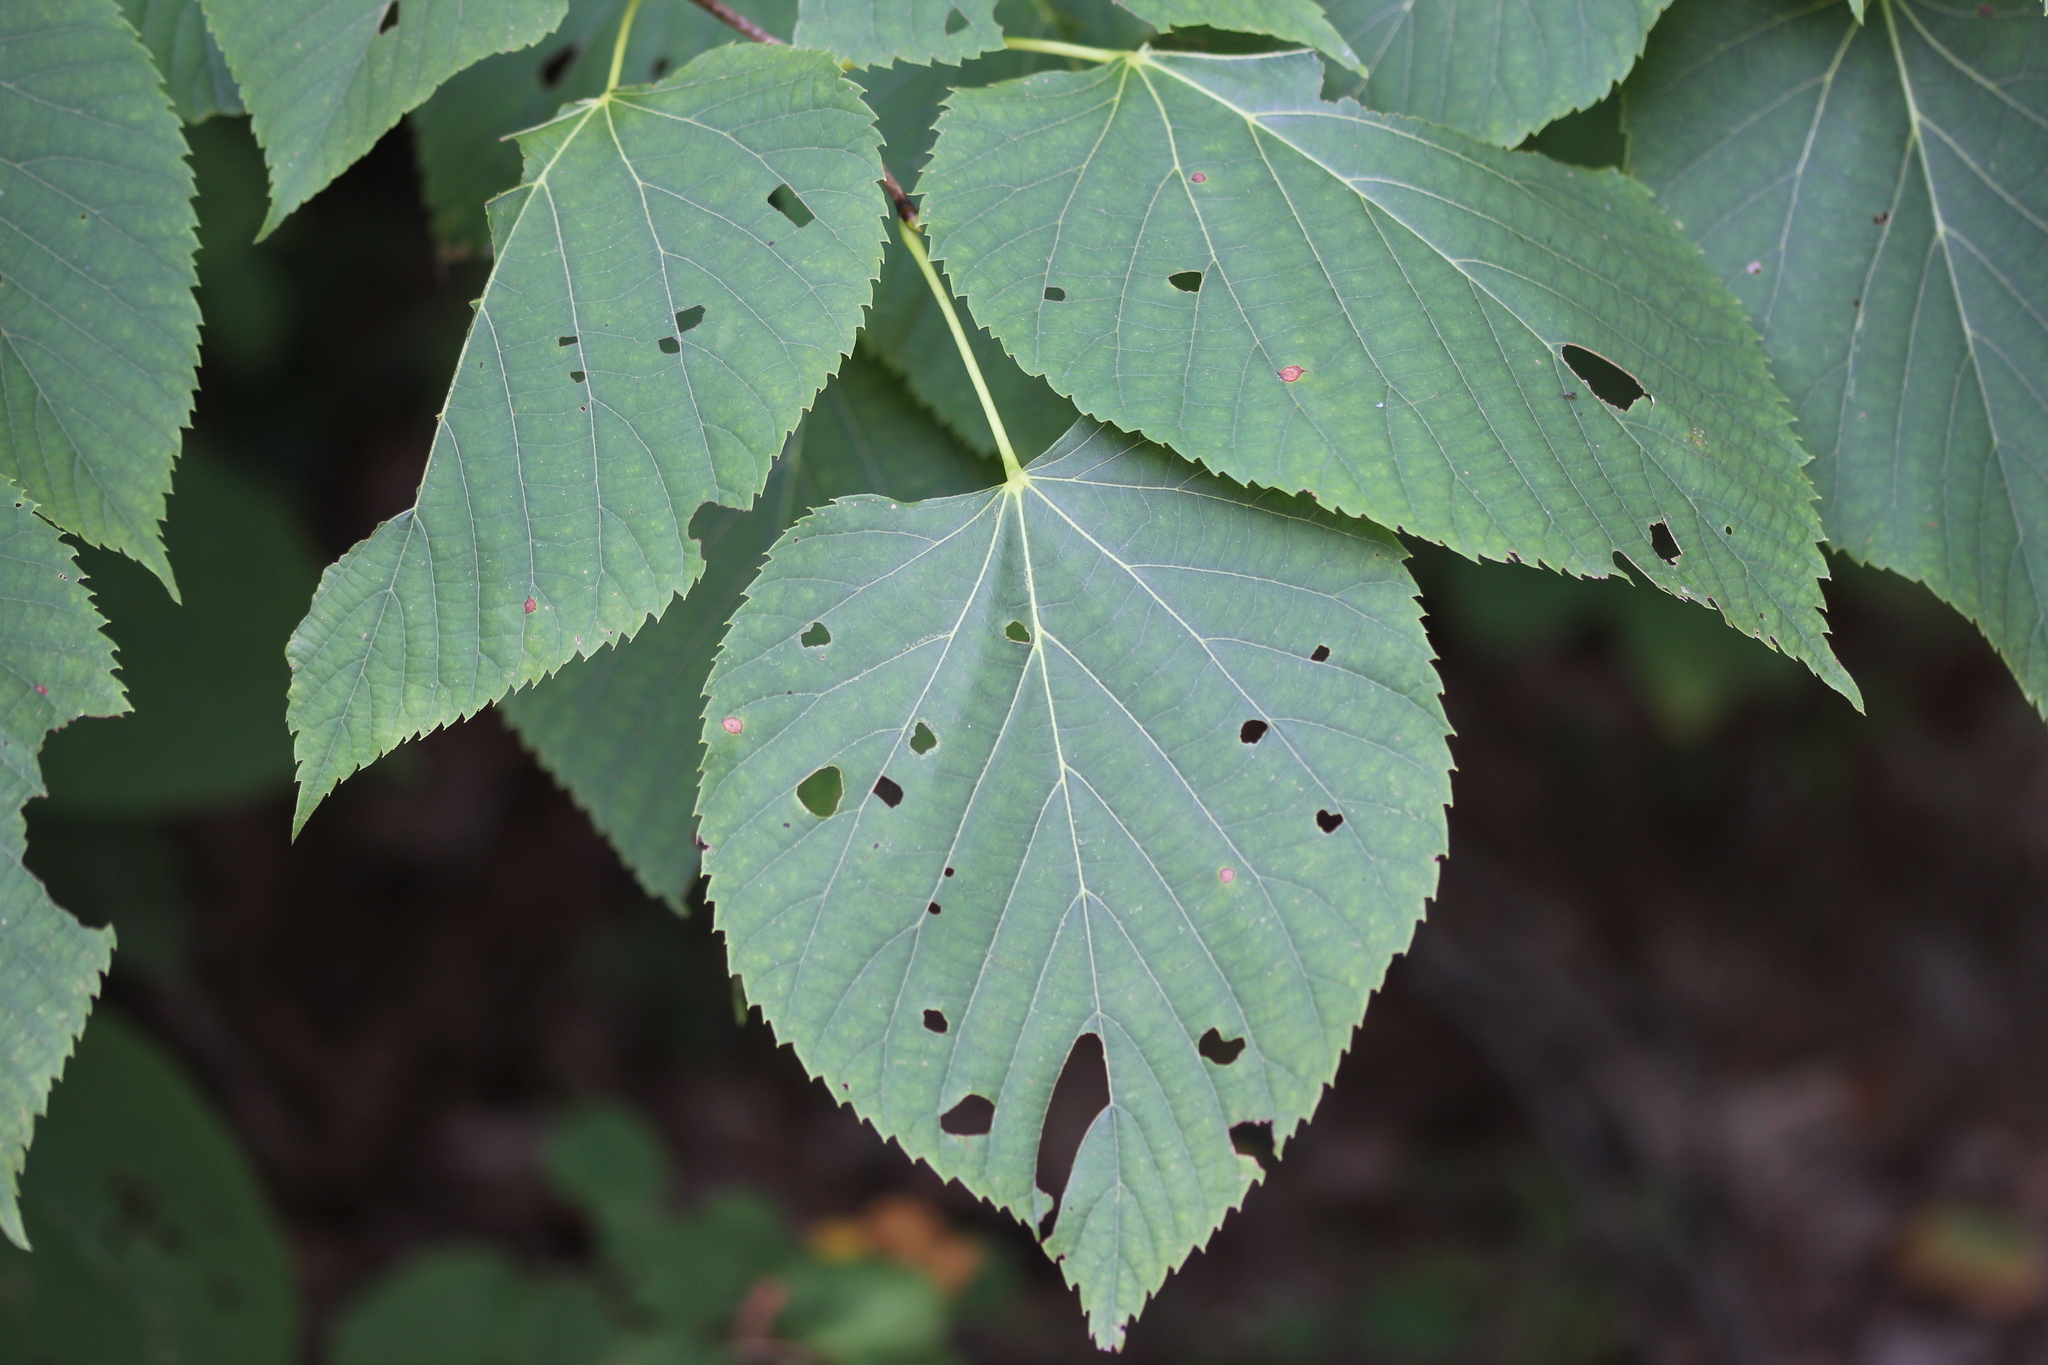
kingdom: Plantae
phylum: Tracheophyta
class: Magnoliopsida
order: Malvales
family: Malvaceae
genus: Tilia
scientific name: Tilia americana
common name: Basswood
